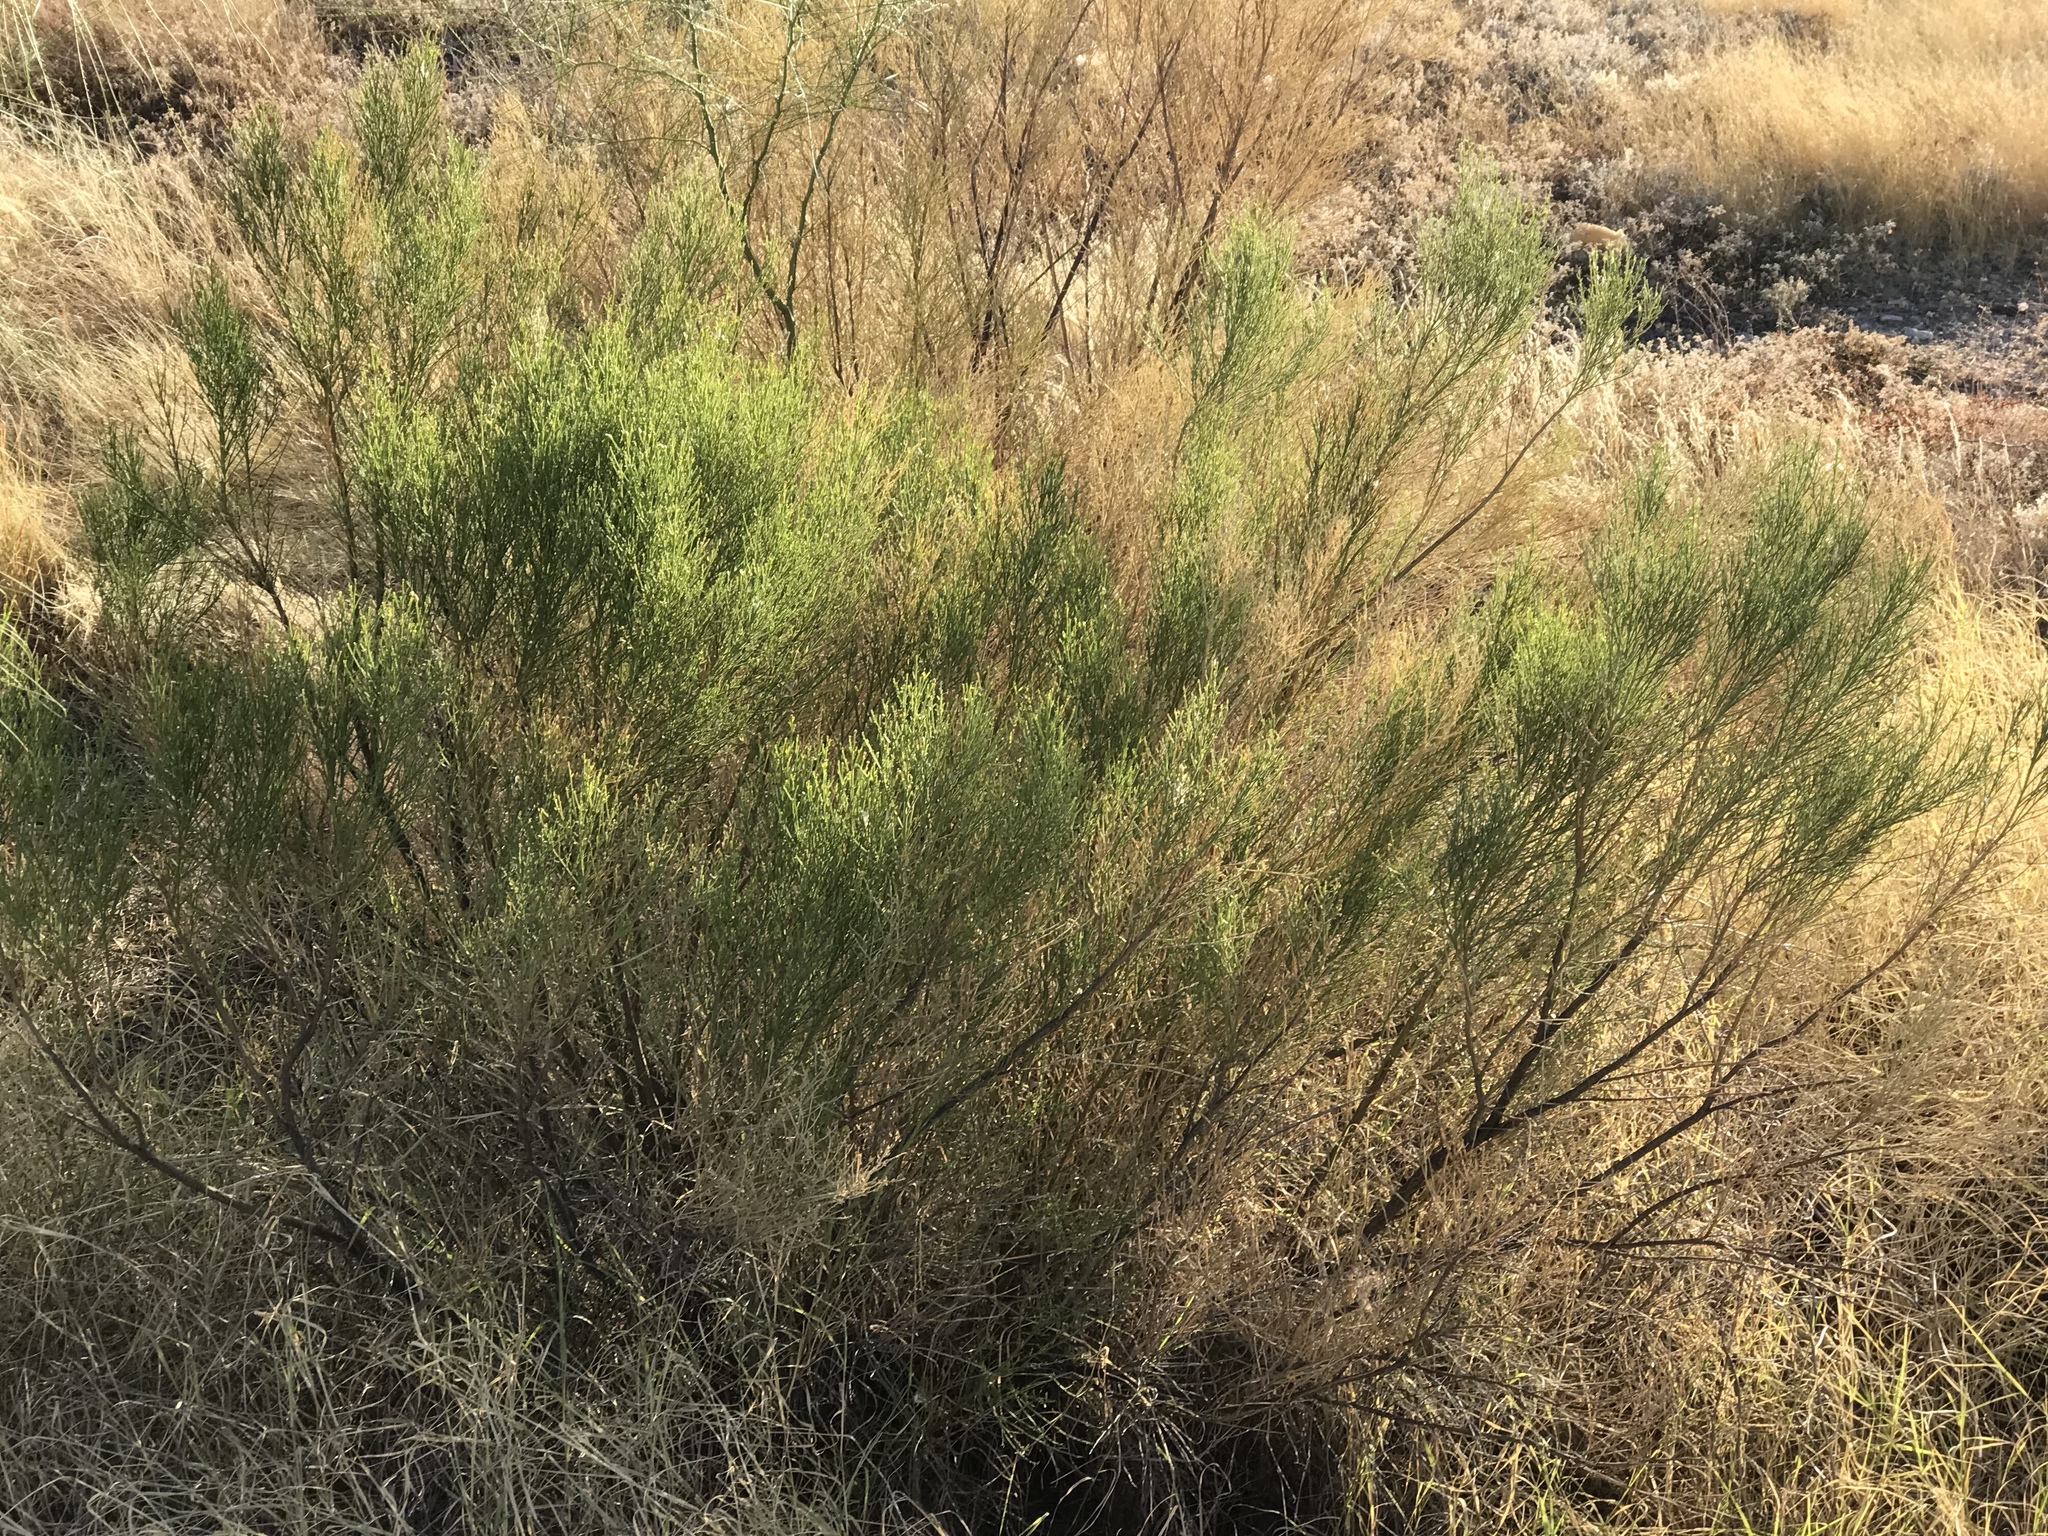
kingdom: Plantae
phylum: Tracheophyta
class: Magnoliopsida
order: Asterales
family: Asteraceae
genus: Baccharis
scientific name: Baccharis sarothroides
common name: Desert-broom
